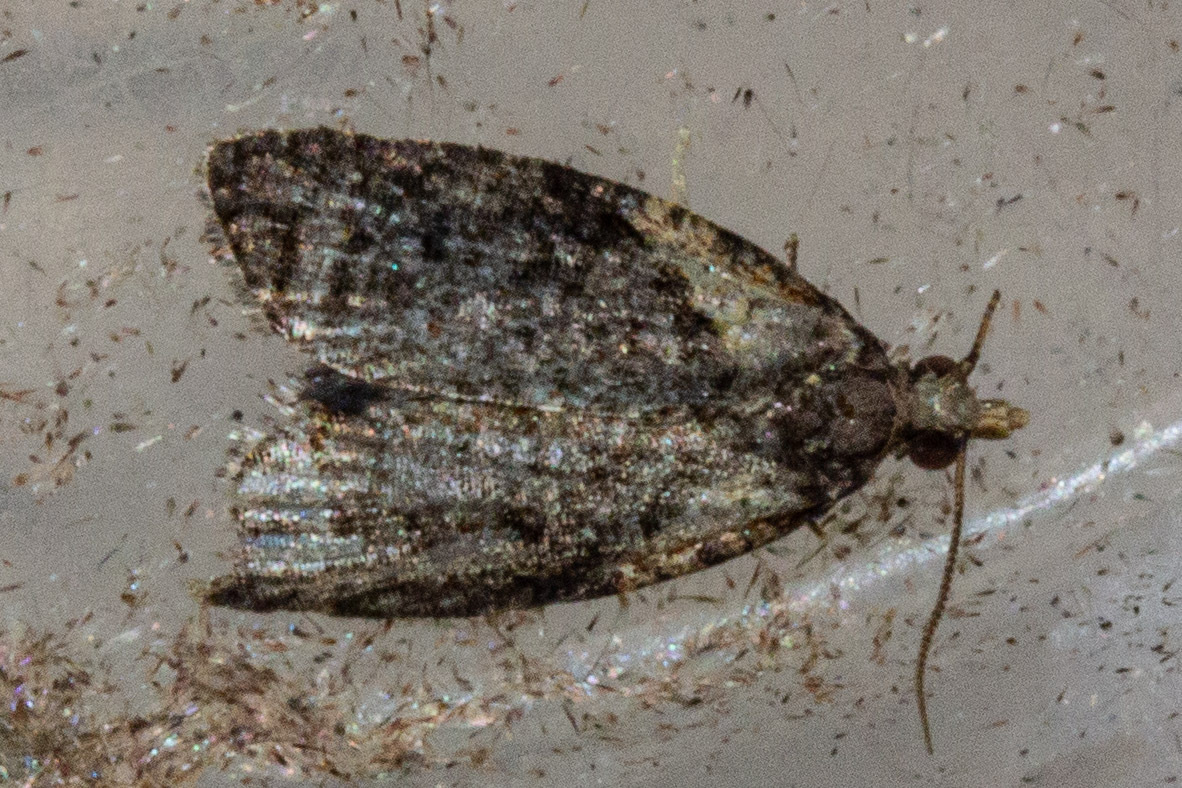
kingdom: Animalia
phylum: Arthropoda
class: Insecta
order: Lepidoptera
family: Tortricidae
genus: Capua
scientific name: Capua intractana
